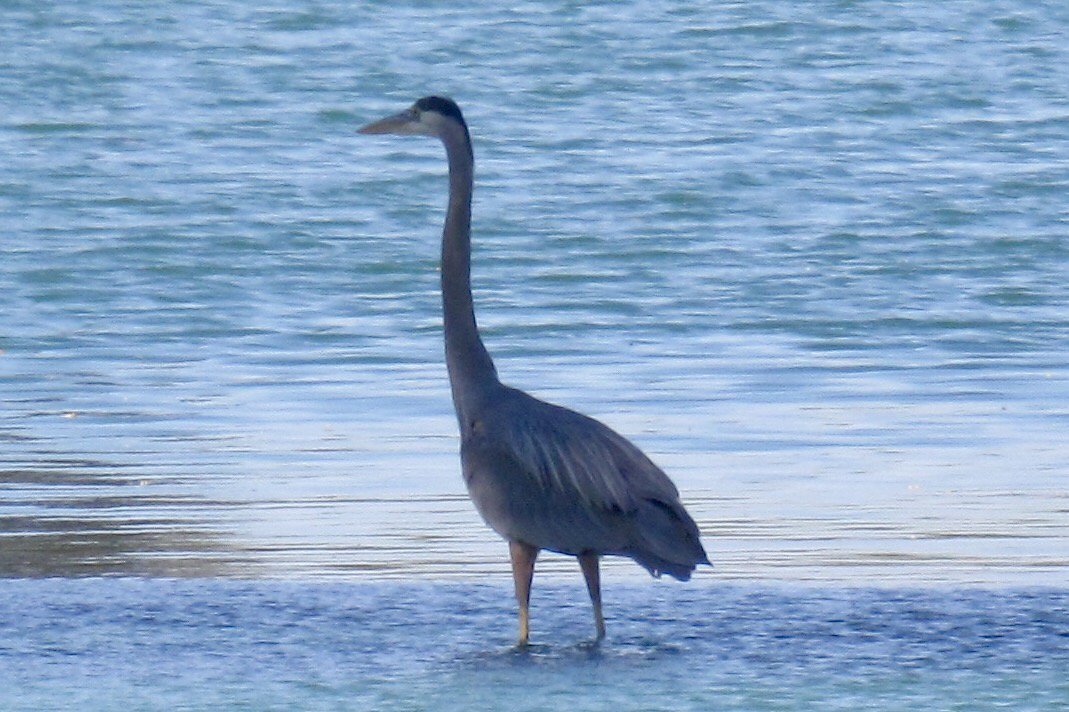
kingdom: Animalia
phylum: Chordata
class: Aves
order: Pelecaniformes
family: Ardeidae
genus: Ardea
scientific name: Ardea herodias
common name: Great blue heron
